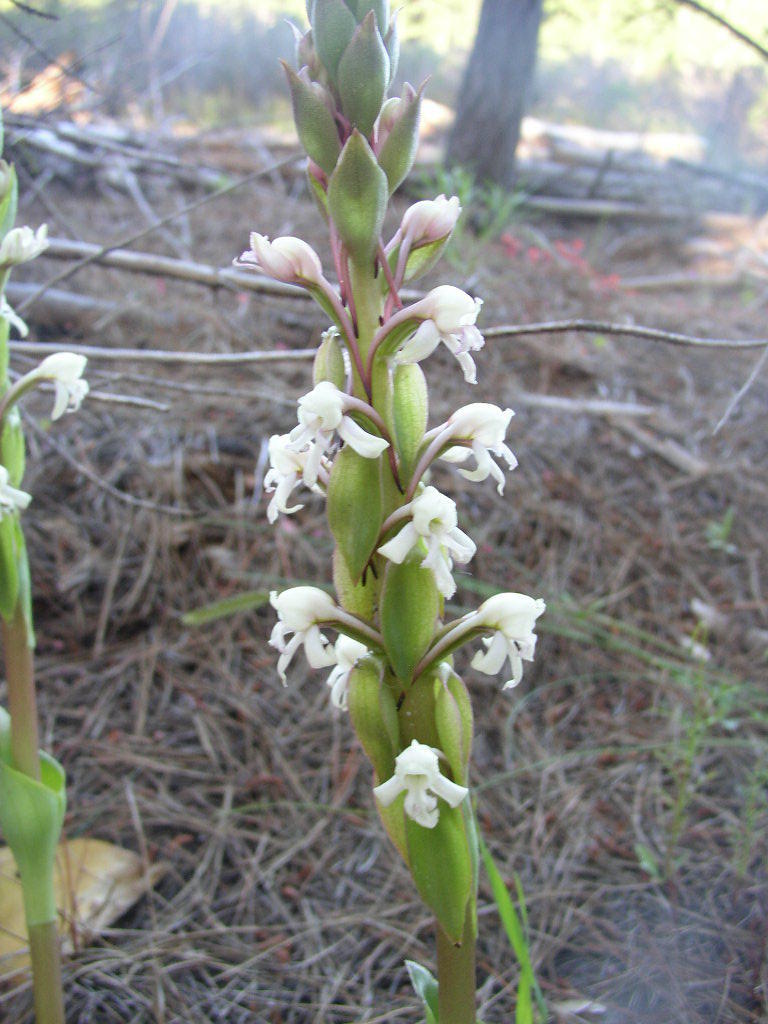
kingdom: Plantae
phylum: Tracheophyta
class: Liliopsida
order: Asparagales
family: Orchidaceae
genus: Satyrium
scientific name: Satyrium candidum
